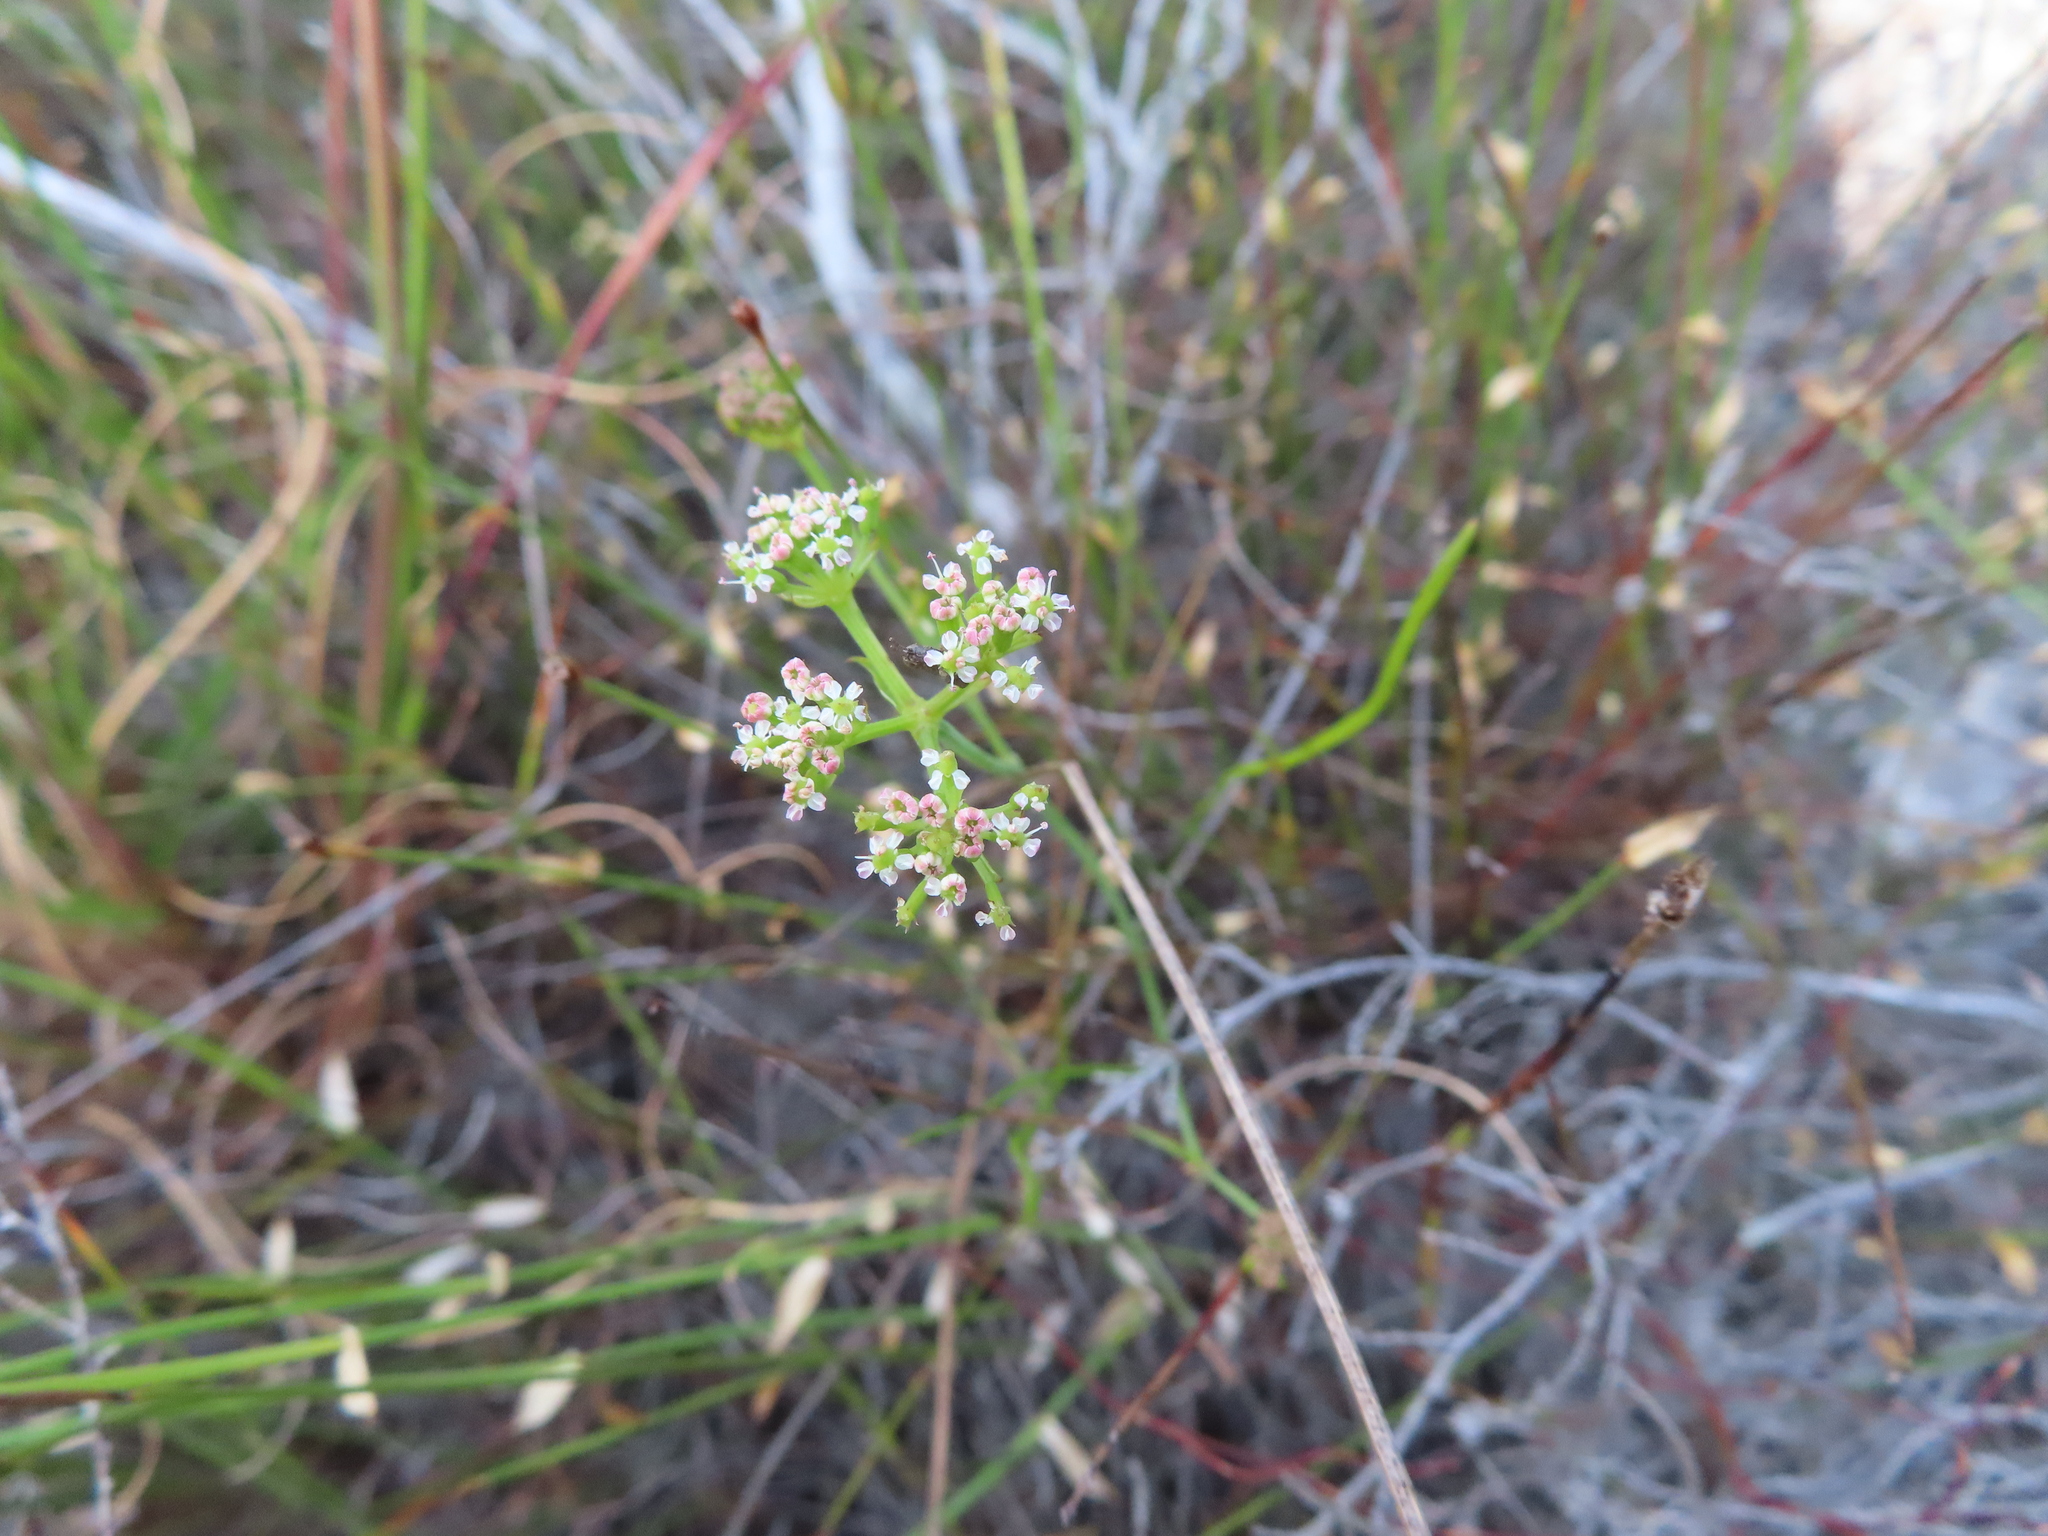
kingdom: Plantae
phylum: Tracheophyta
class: Magnoliopsida
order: Apiales
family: Apiaceae
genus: Itasina
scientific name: Itasina filifolia
